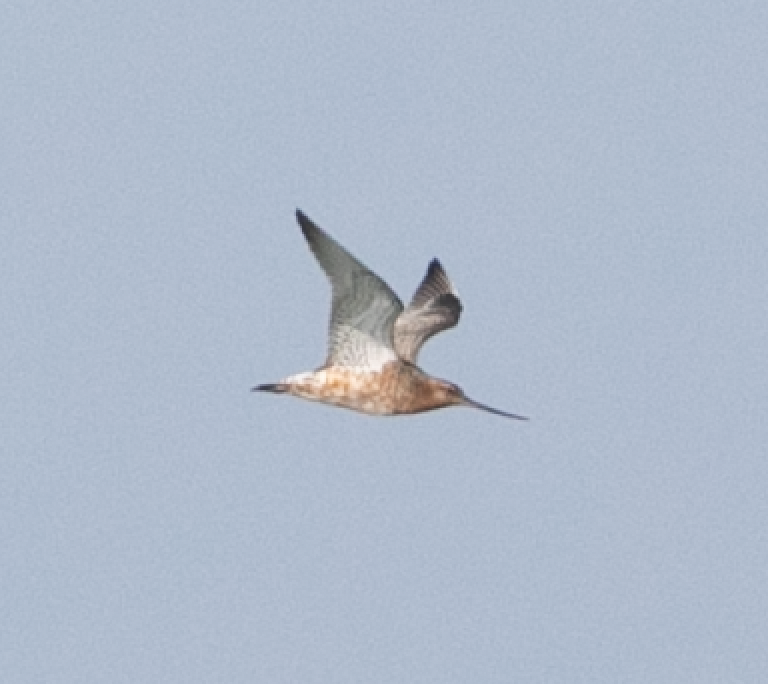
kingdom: Animalia
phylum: Chordata
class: Aves
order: Charadriiformes
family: Scolopacidae
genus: Limosa
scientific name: Limosa lapponica
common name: Bar-tailed godwit
